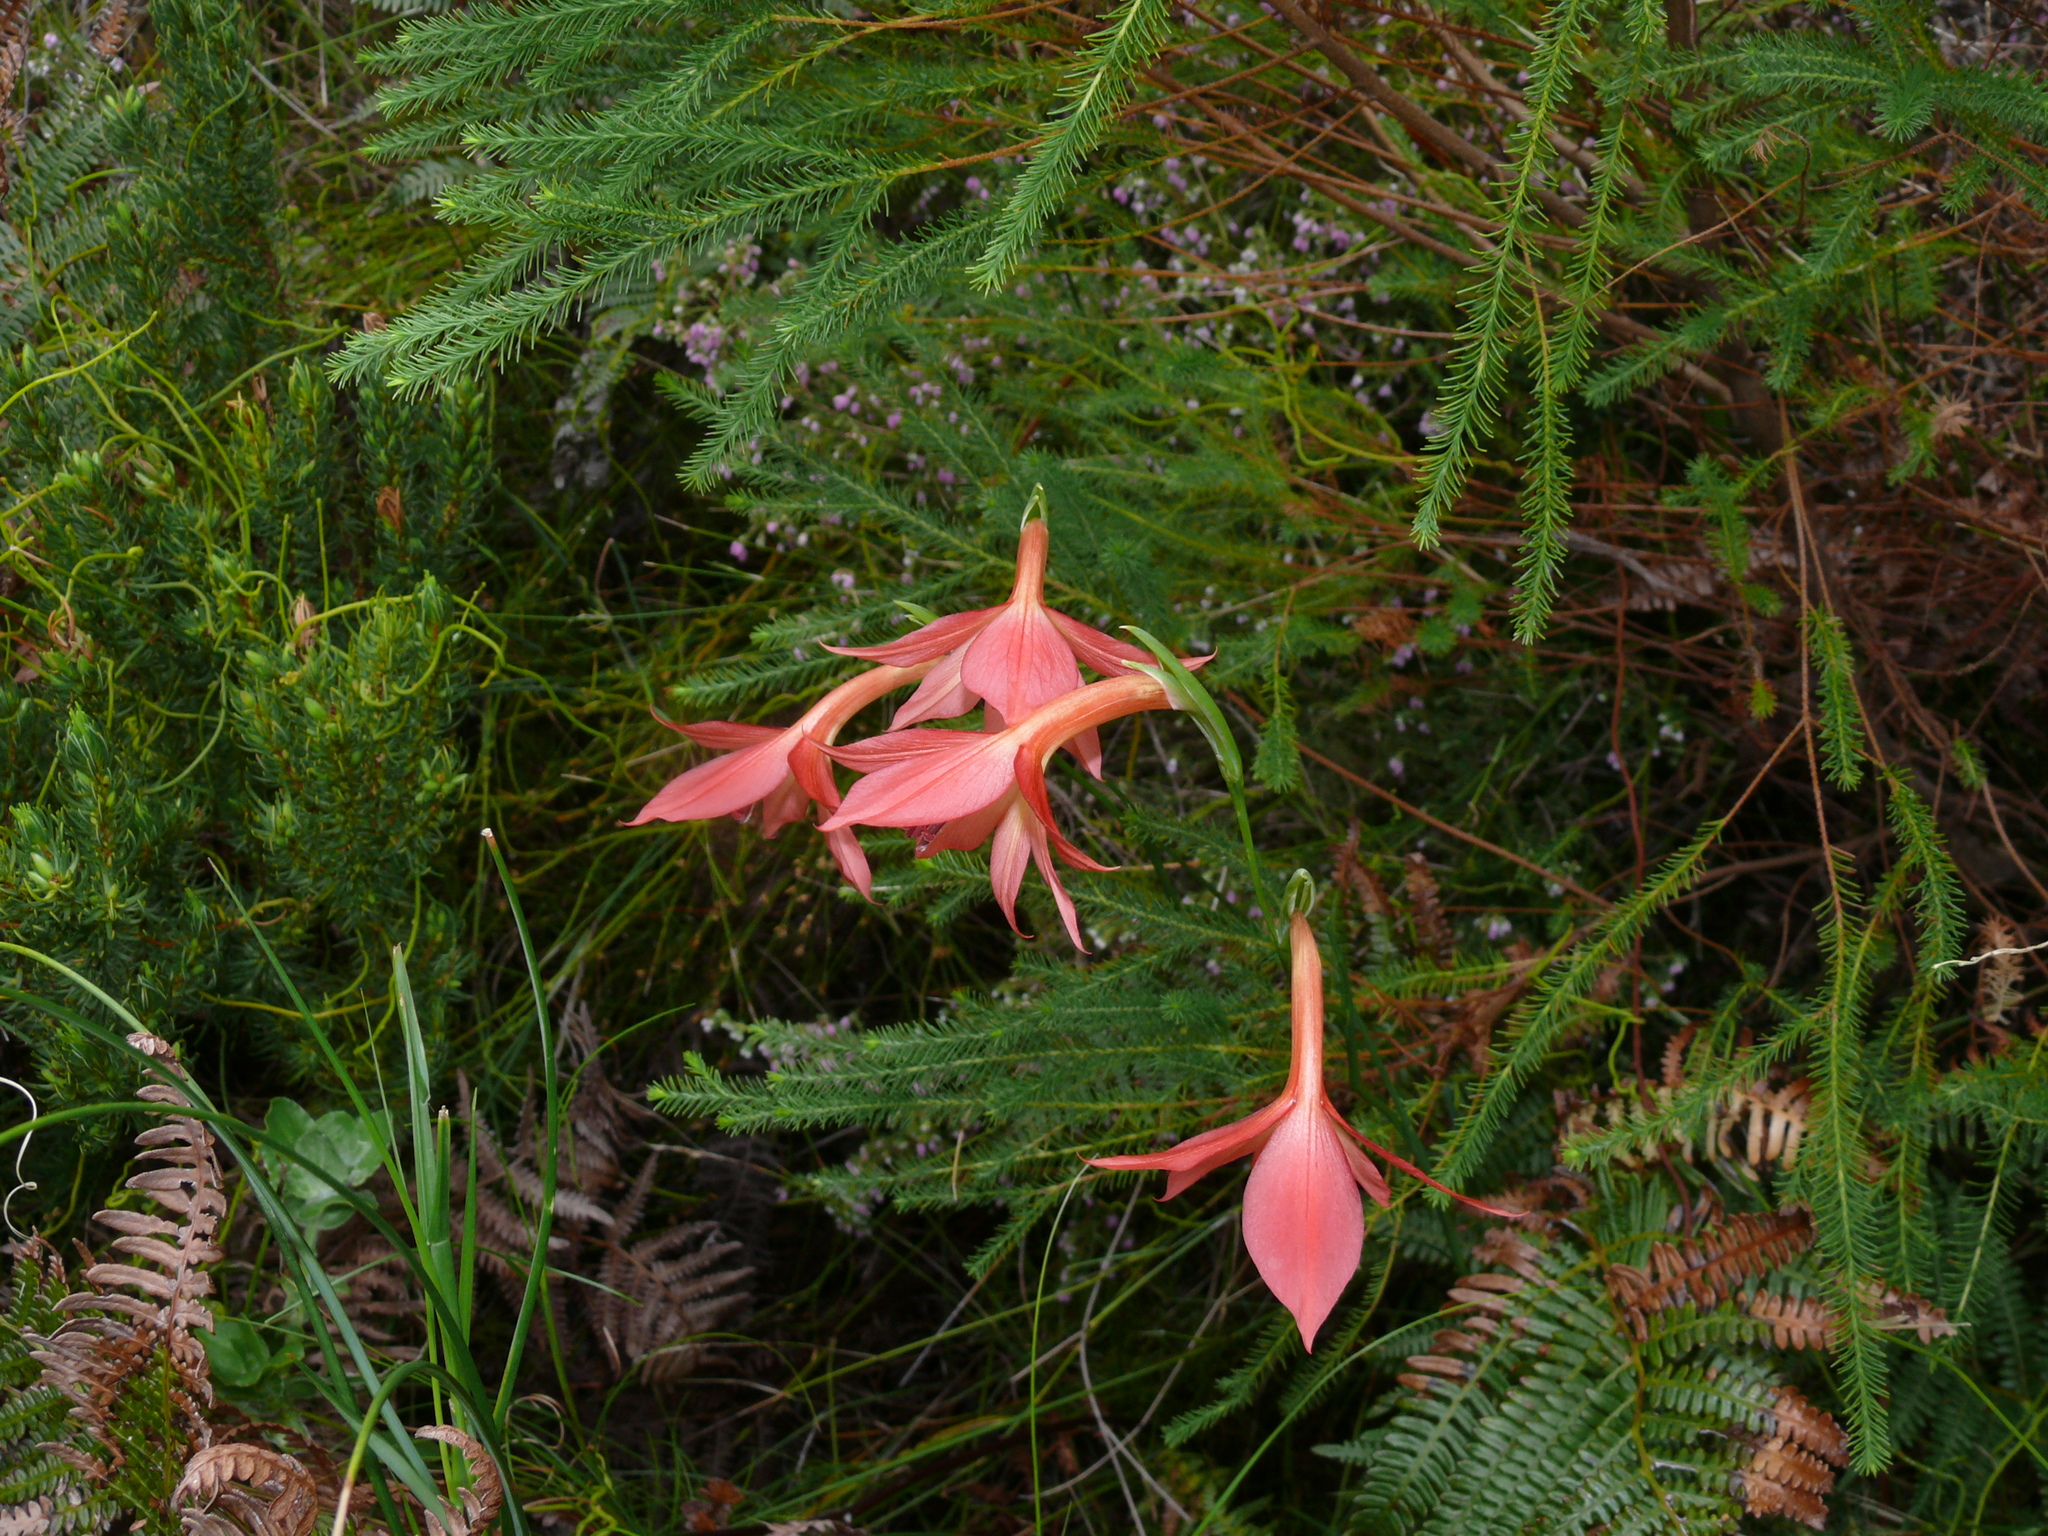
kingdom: Plantae
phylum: Tracheophyta
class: Liliopsida
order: Asparagales
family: Iridaceae
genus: Gladiolus
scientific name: Gladiolus priorii
